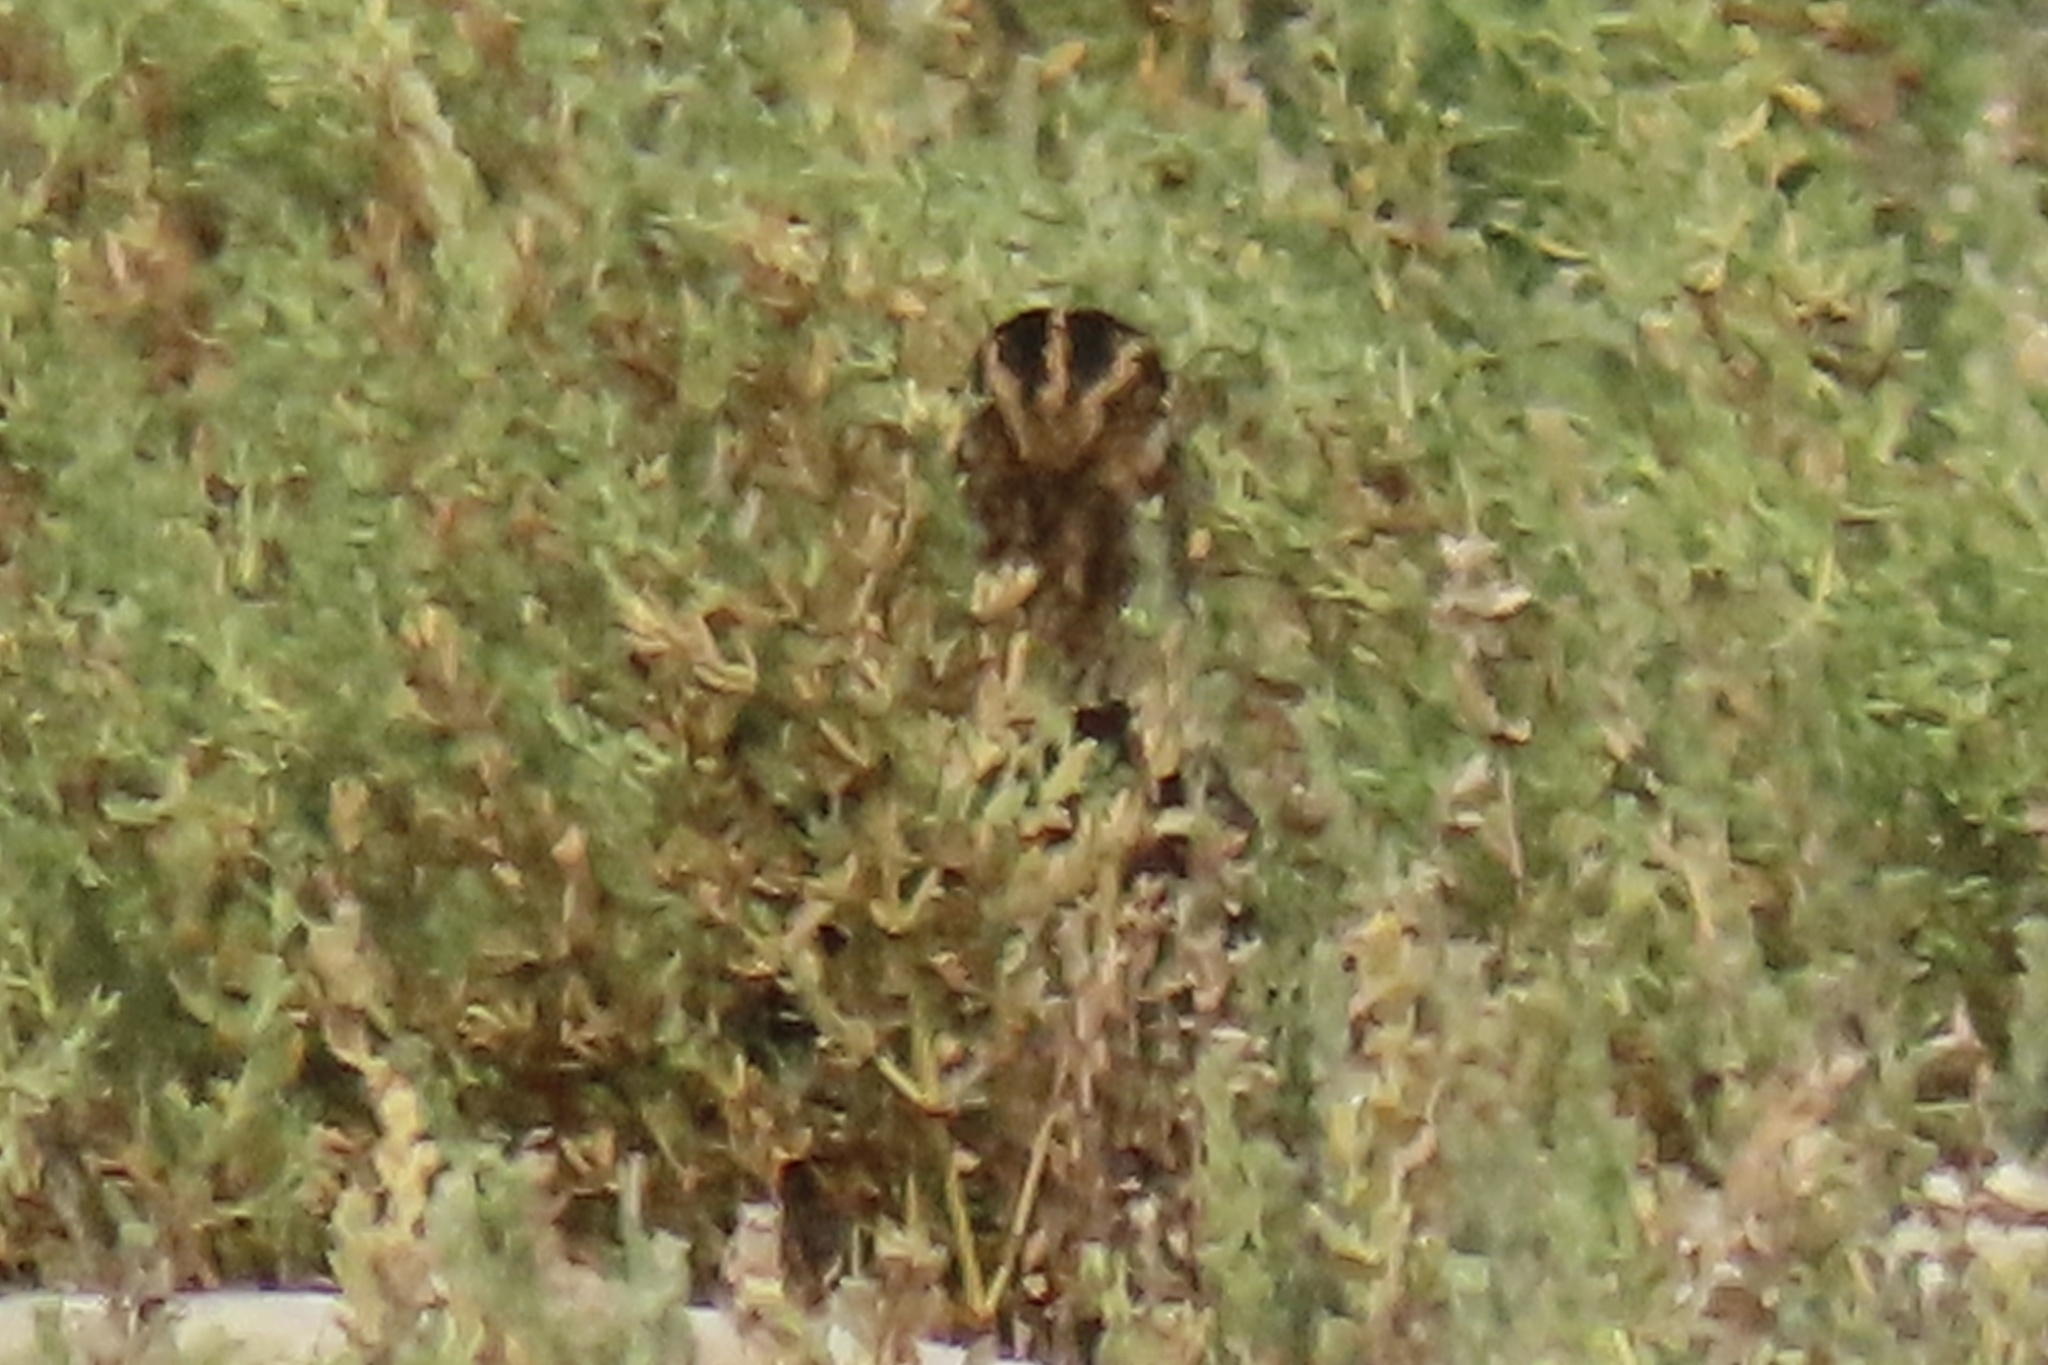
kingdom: Animalia
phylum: Chordata
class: Aves
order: Charadriiformes
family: Scolopacidae
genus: Gallinago
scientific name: Gallinago delicata
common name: Wilson's snipe
